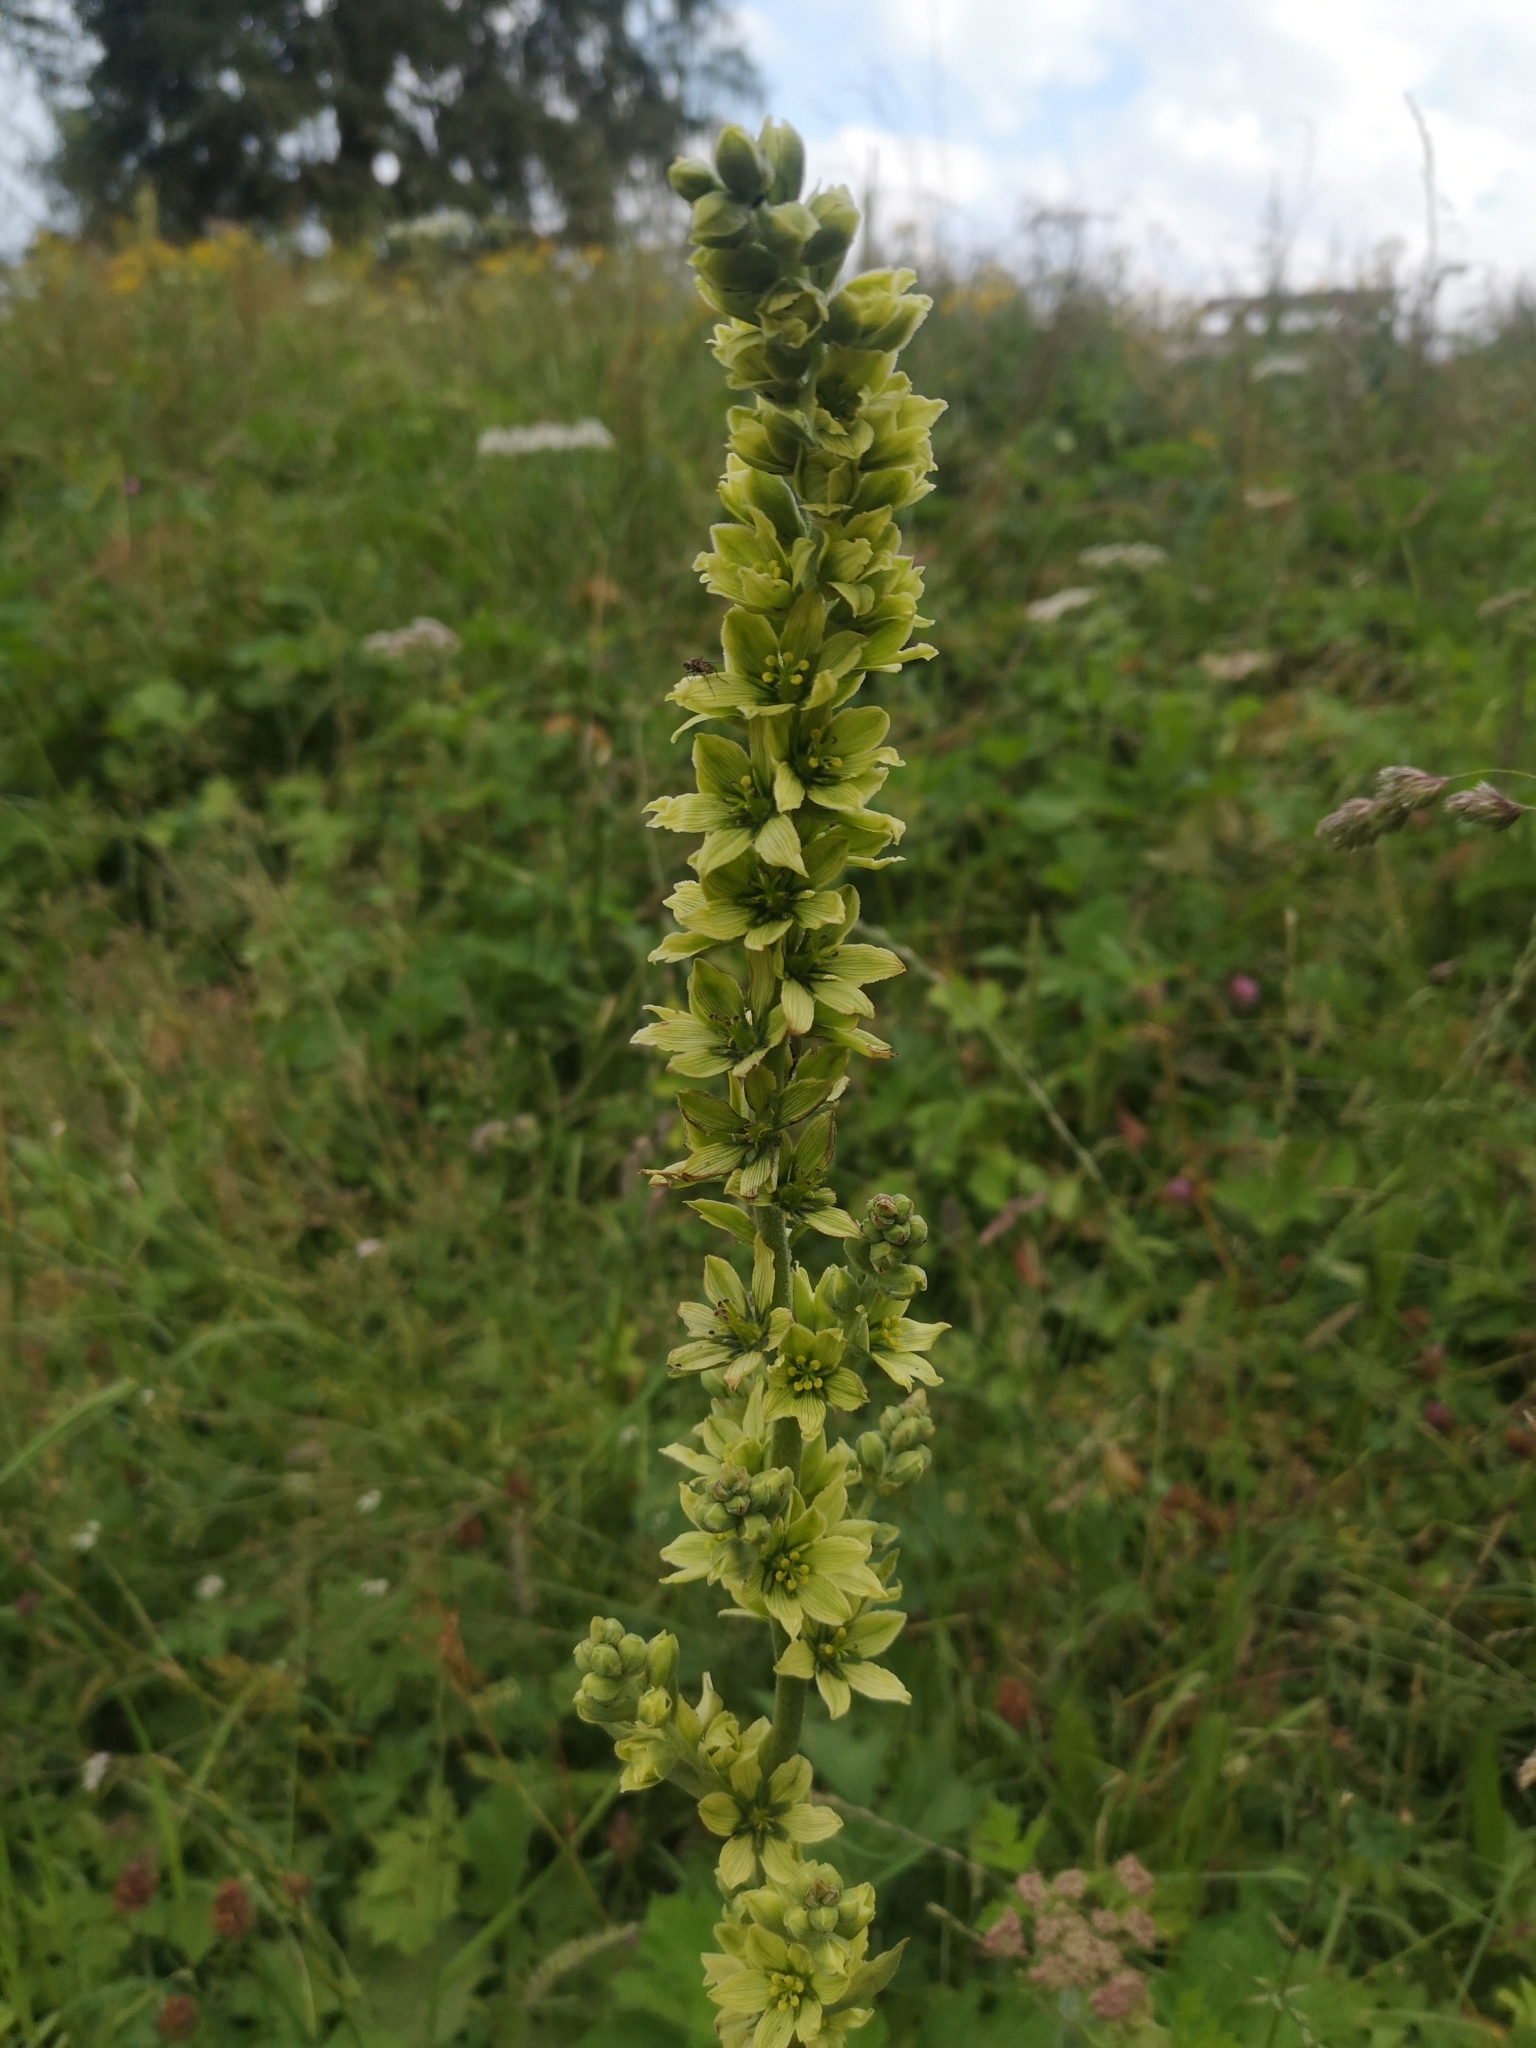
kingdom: Plantae
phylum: Tracheophyta
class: Liliopsida
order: Liliales
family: Melanthiaceae
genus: Veratrum
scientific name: Veratrum lobelianum
